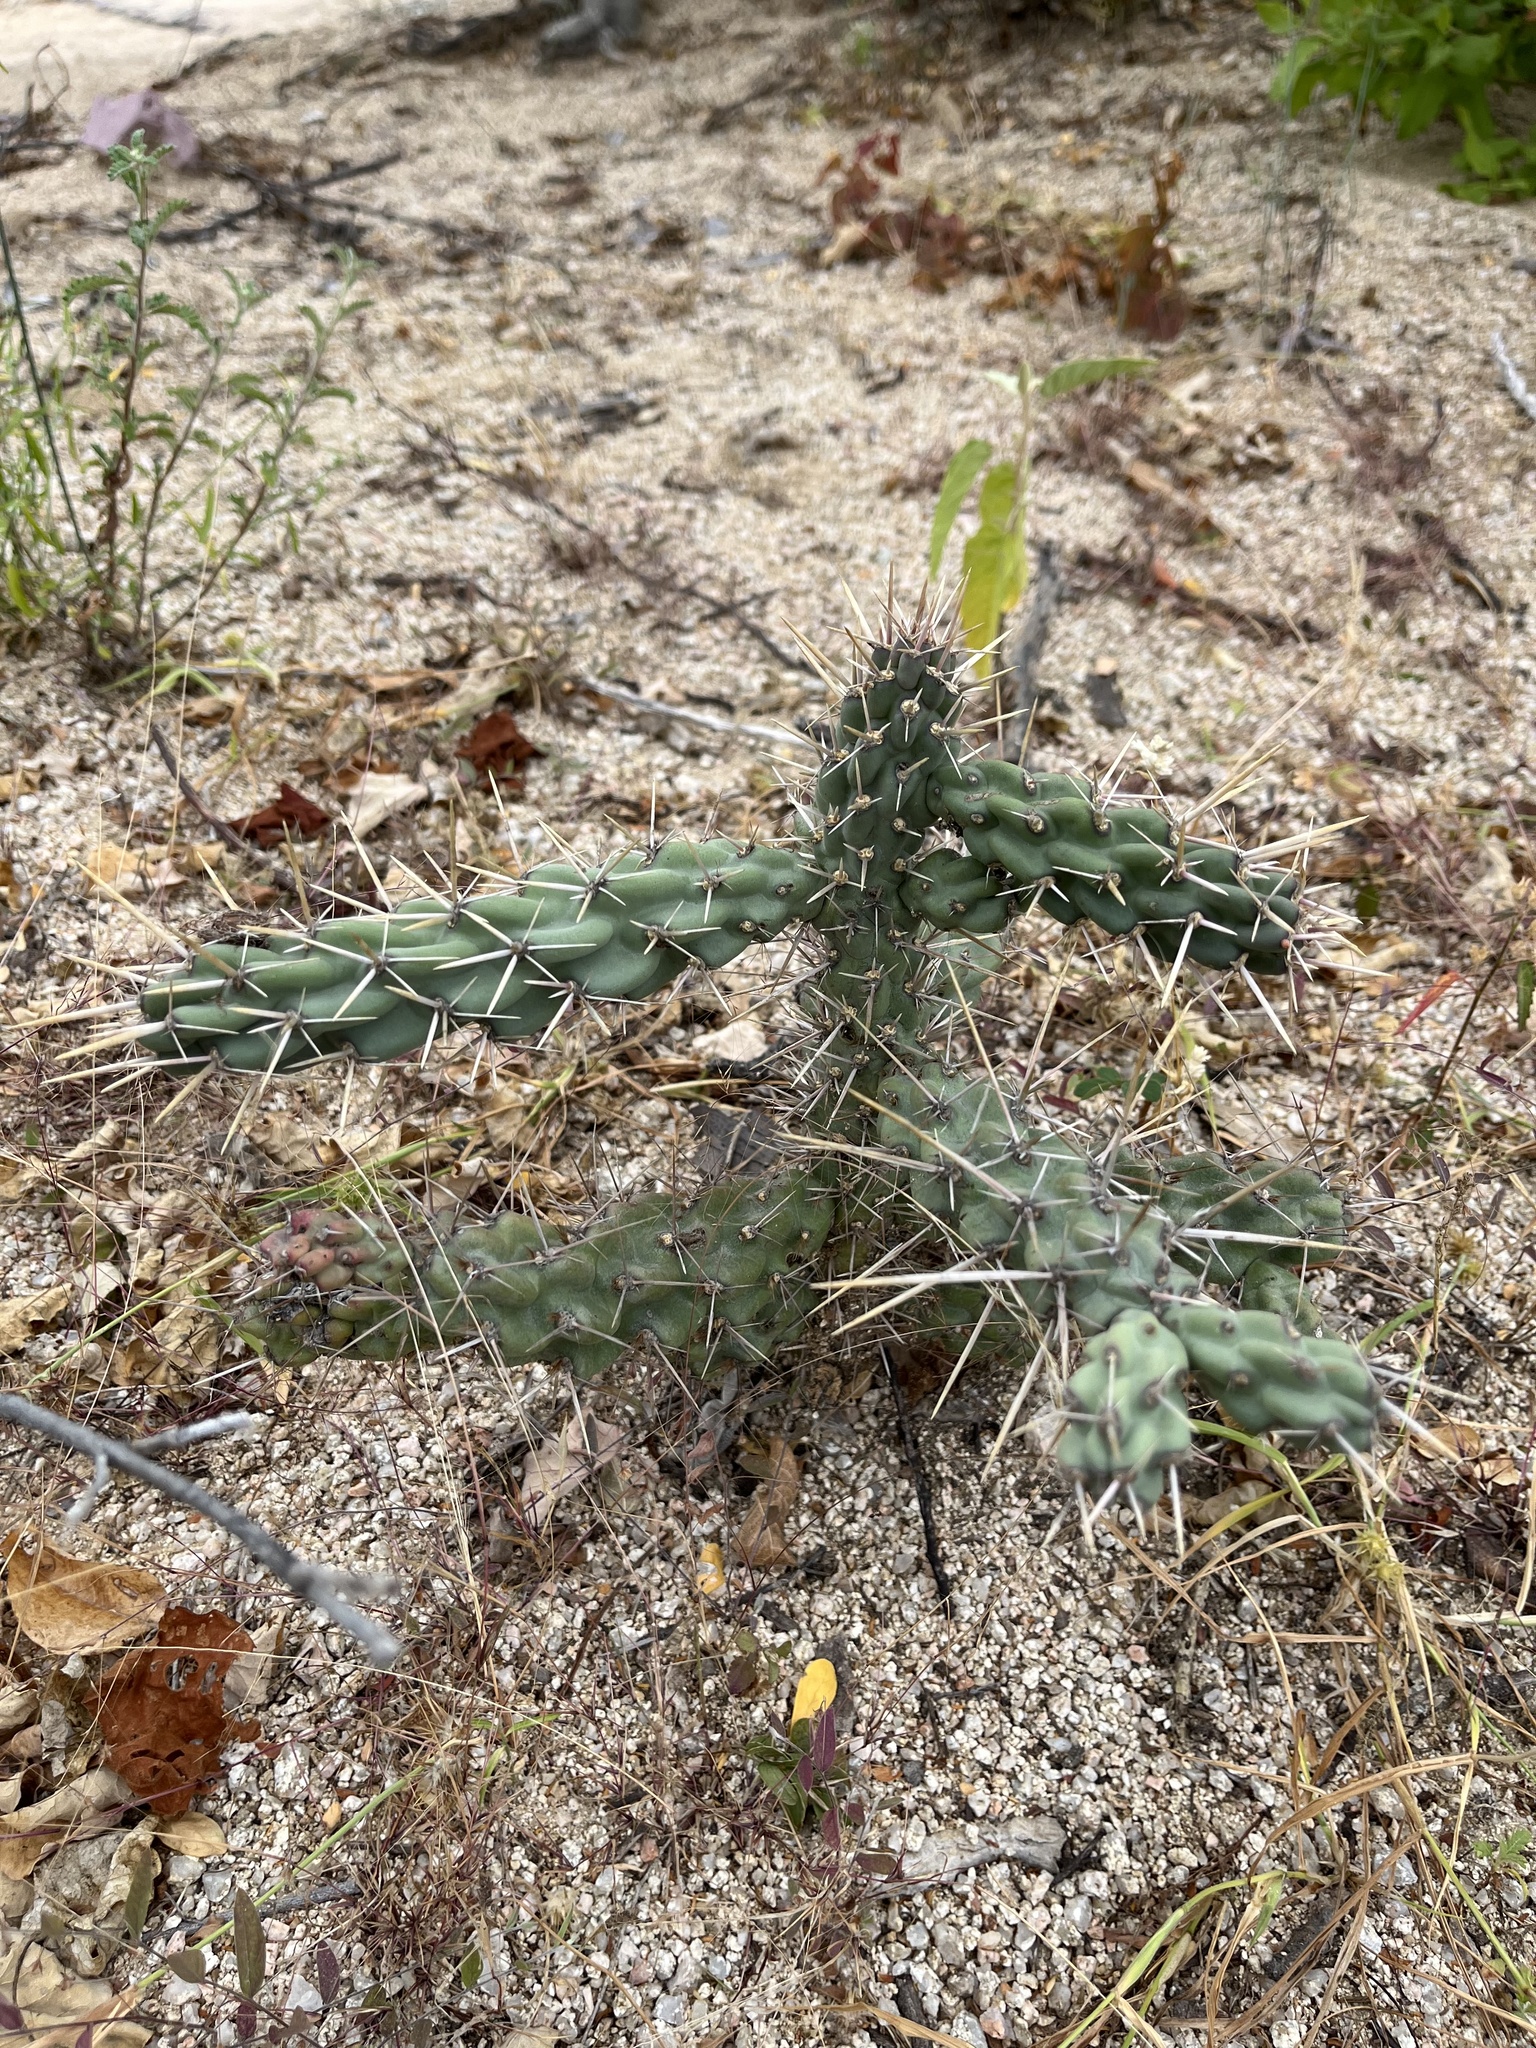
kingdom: Plantae
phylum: Tracheophyta
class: Magnoliopsida
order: Caryophyllales
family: Cactaceae
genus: Cylindropuntia
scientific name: Cylindropuntia cholla
